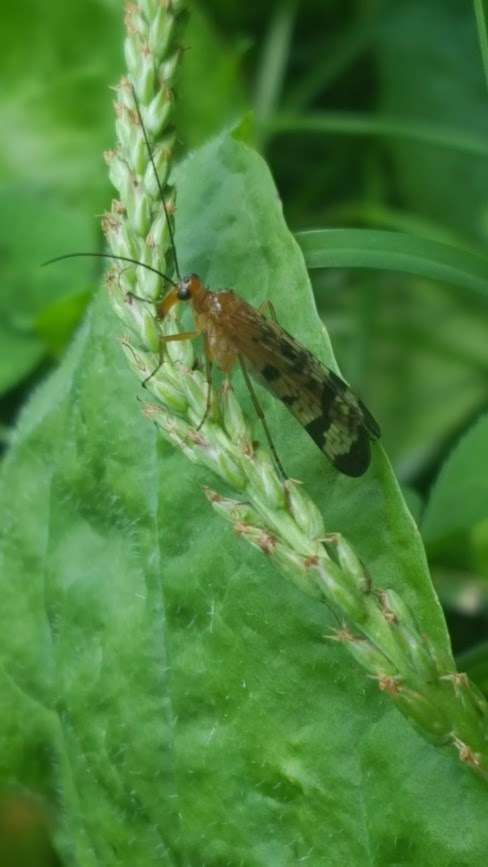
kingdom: Animalia
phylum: Arthropoda
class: Insecta
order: Mecoptera
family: Panorpidae
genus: Panorpa
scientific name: Panorpa
